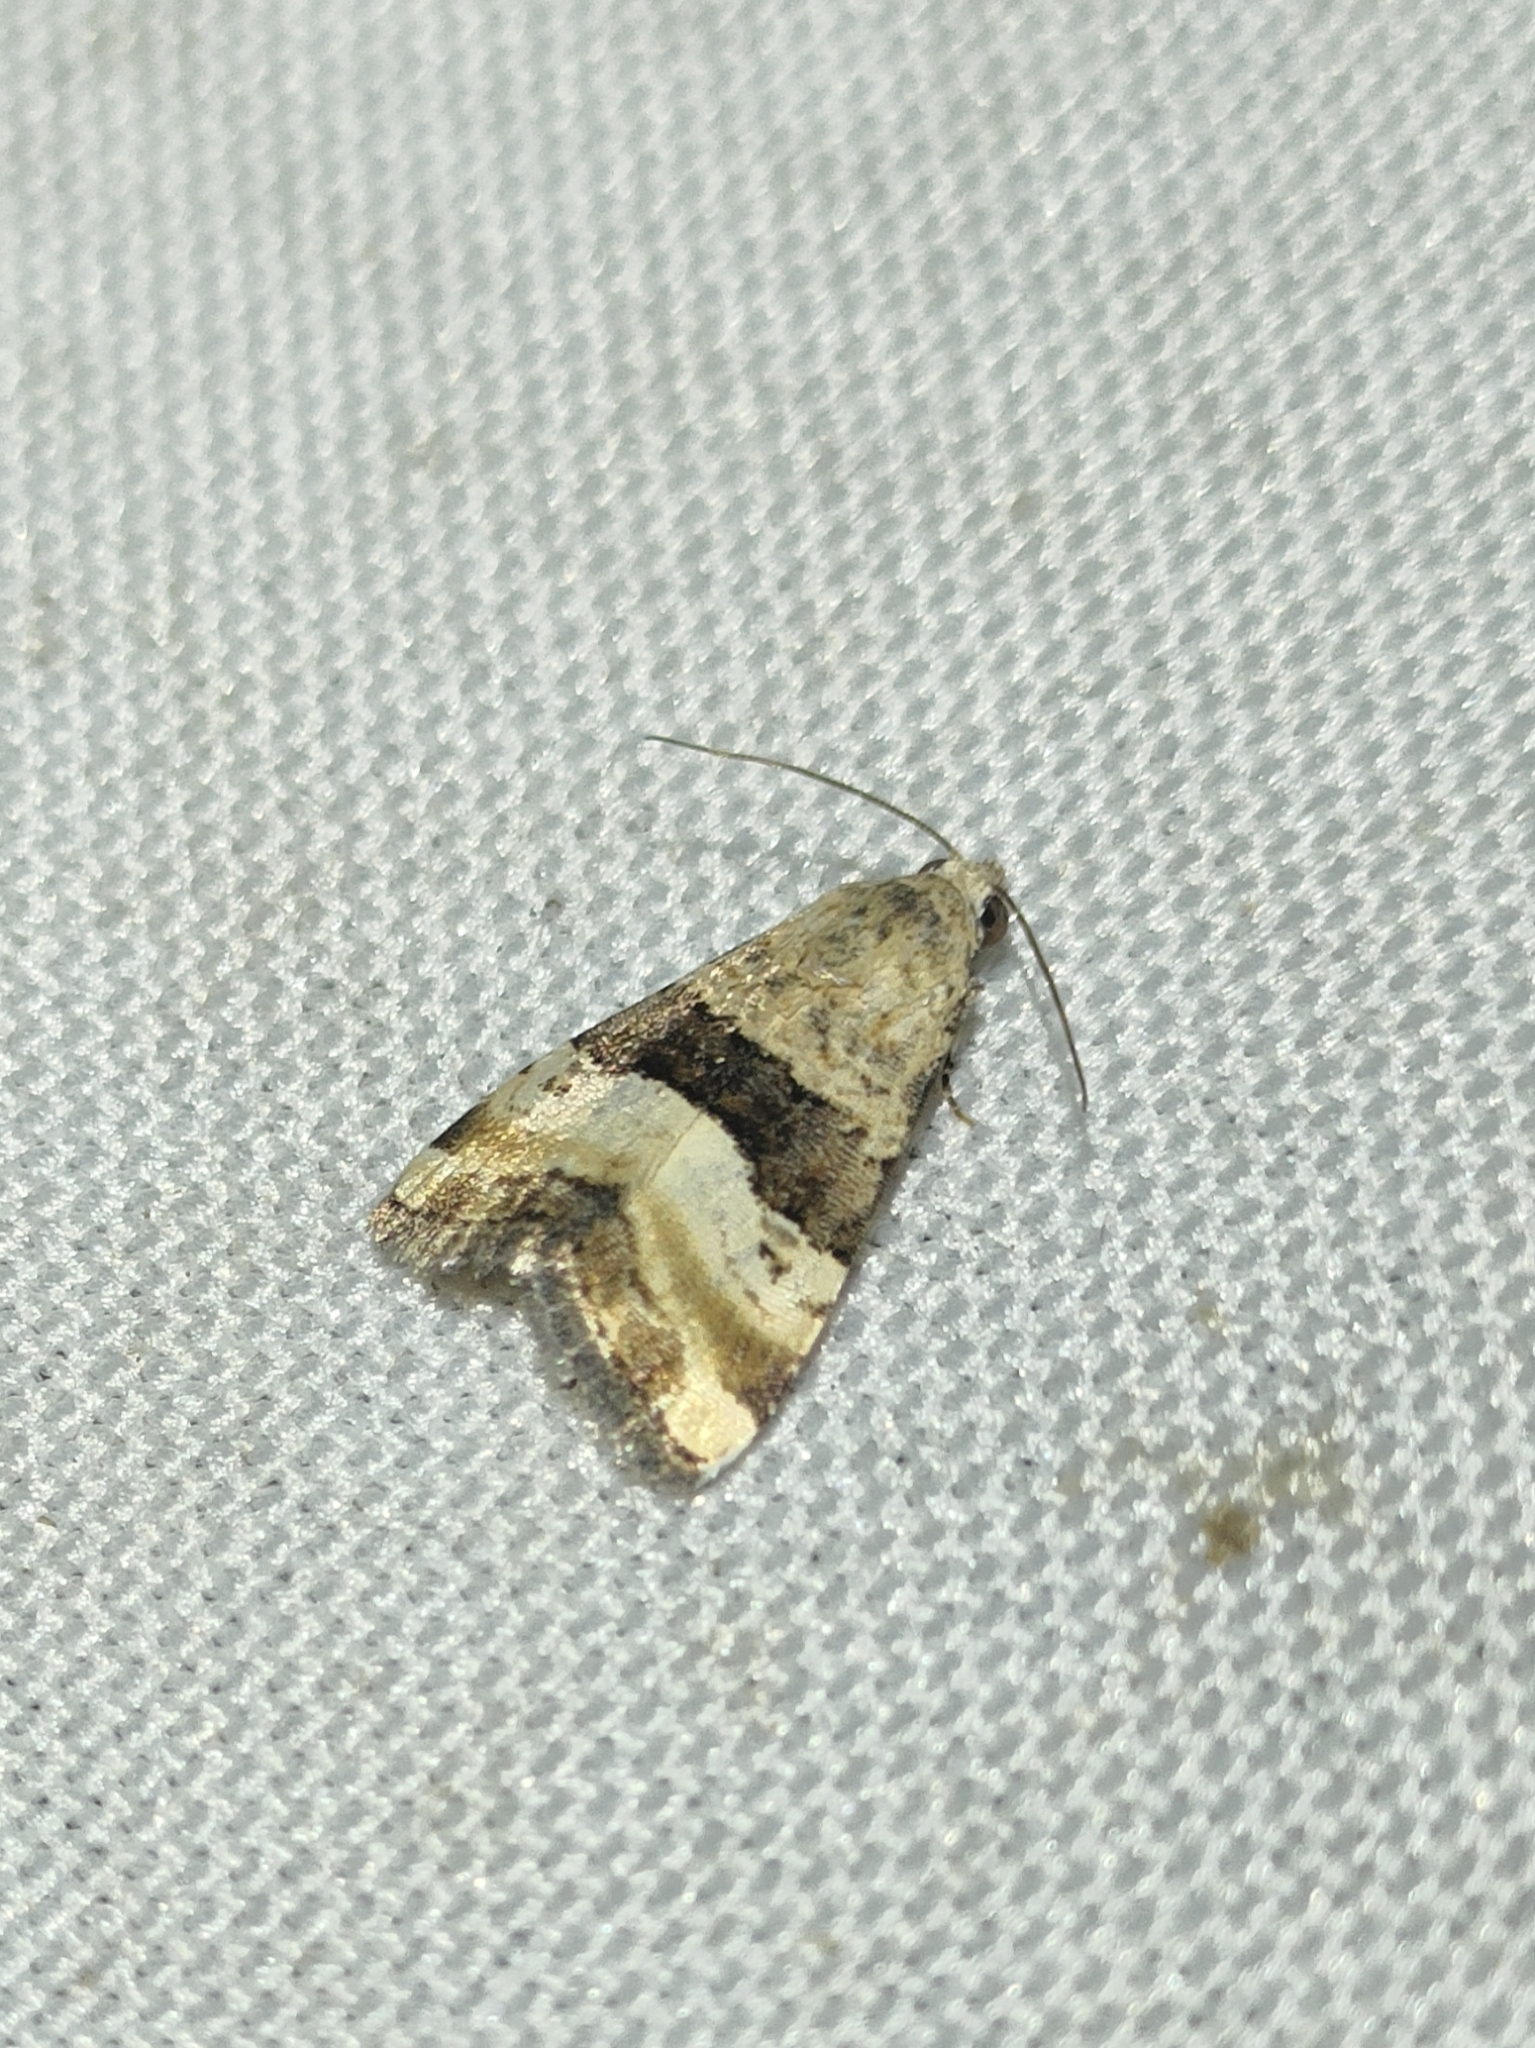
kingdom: Animalia
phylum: Arthropoda
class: Insecta
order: Lepidoptera
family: Noctuidae
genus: Pseudozarba
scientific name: Pseudozarba bipartita
